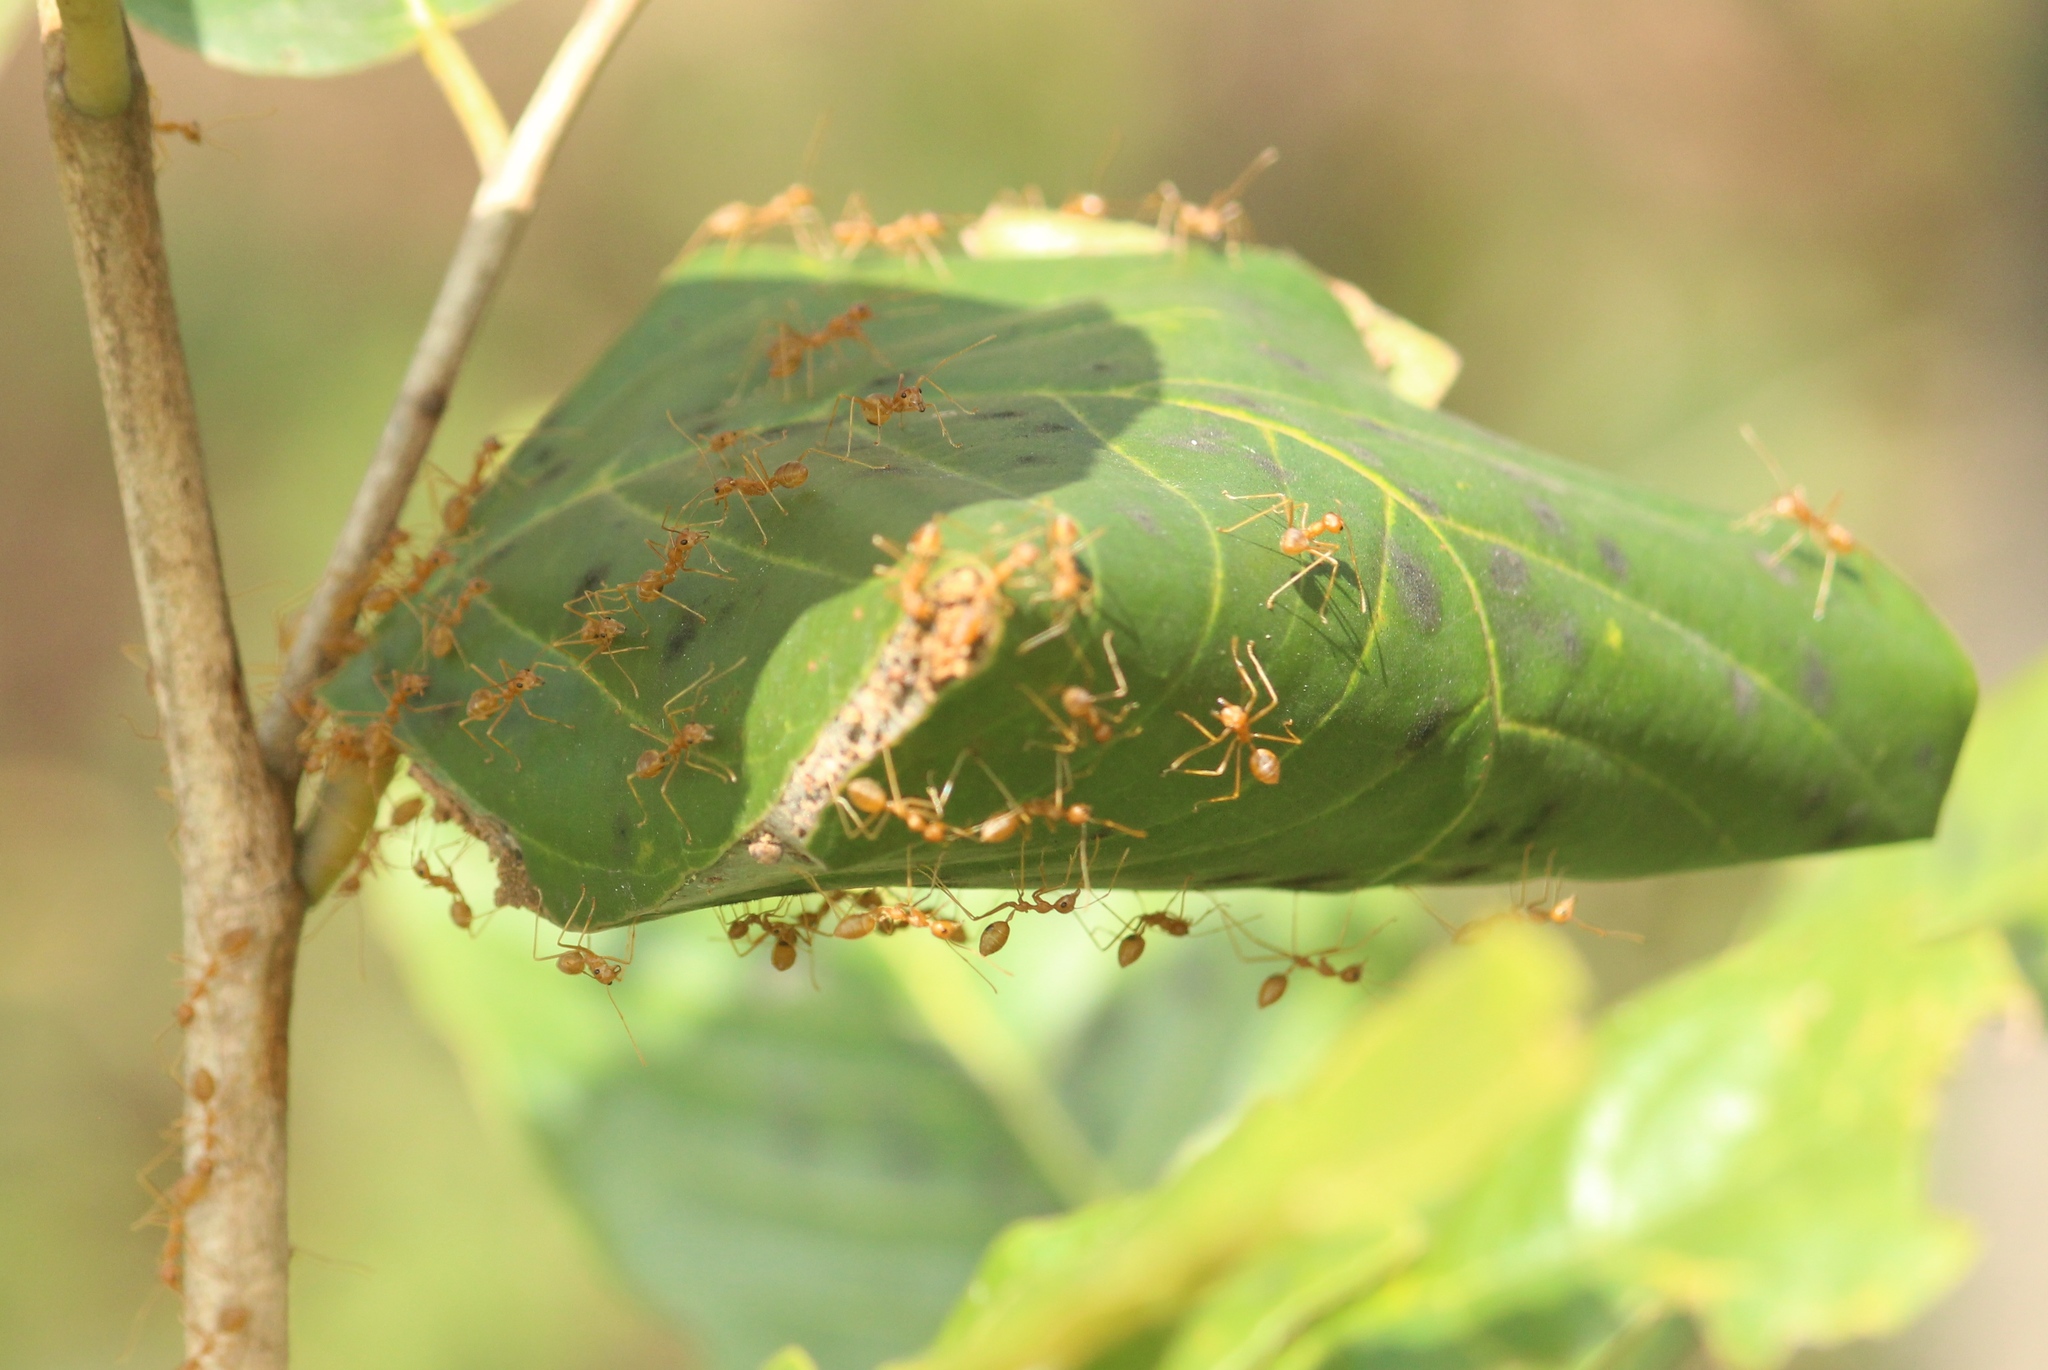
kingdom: Animalia
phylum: Arthropoda
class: Insecta
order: Hymenoptera
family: Formicidae
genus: Oecophylla
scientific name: Oecophylla smaragdina
